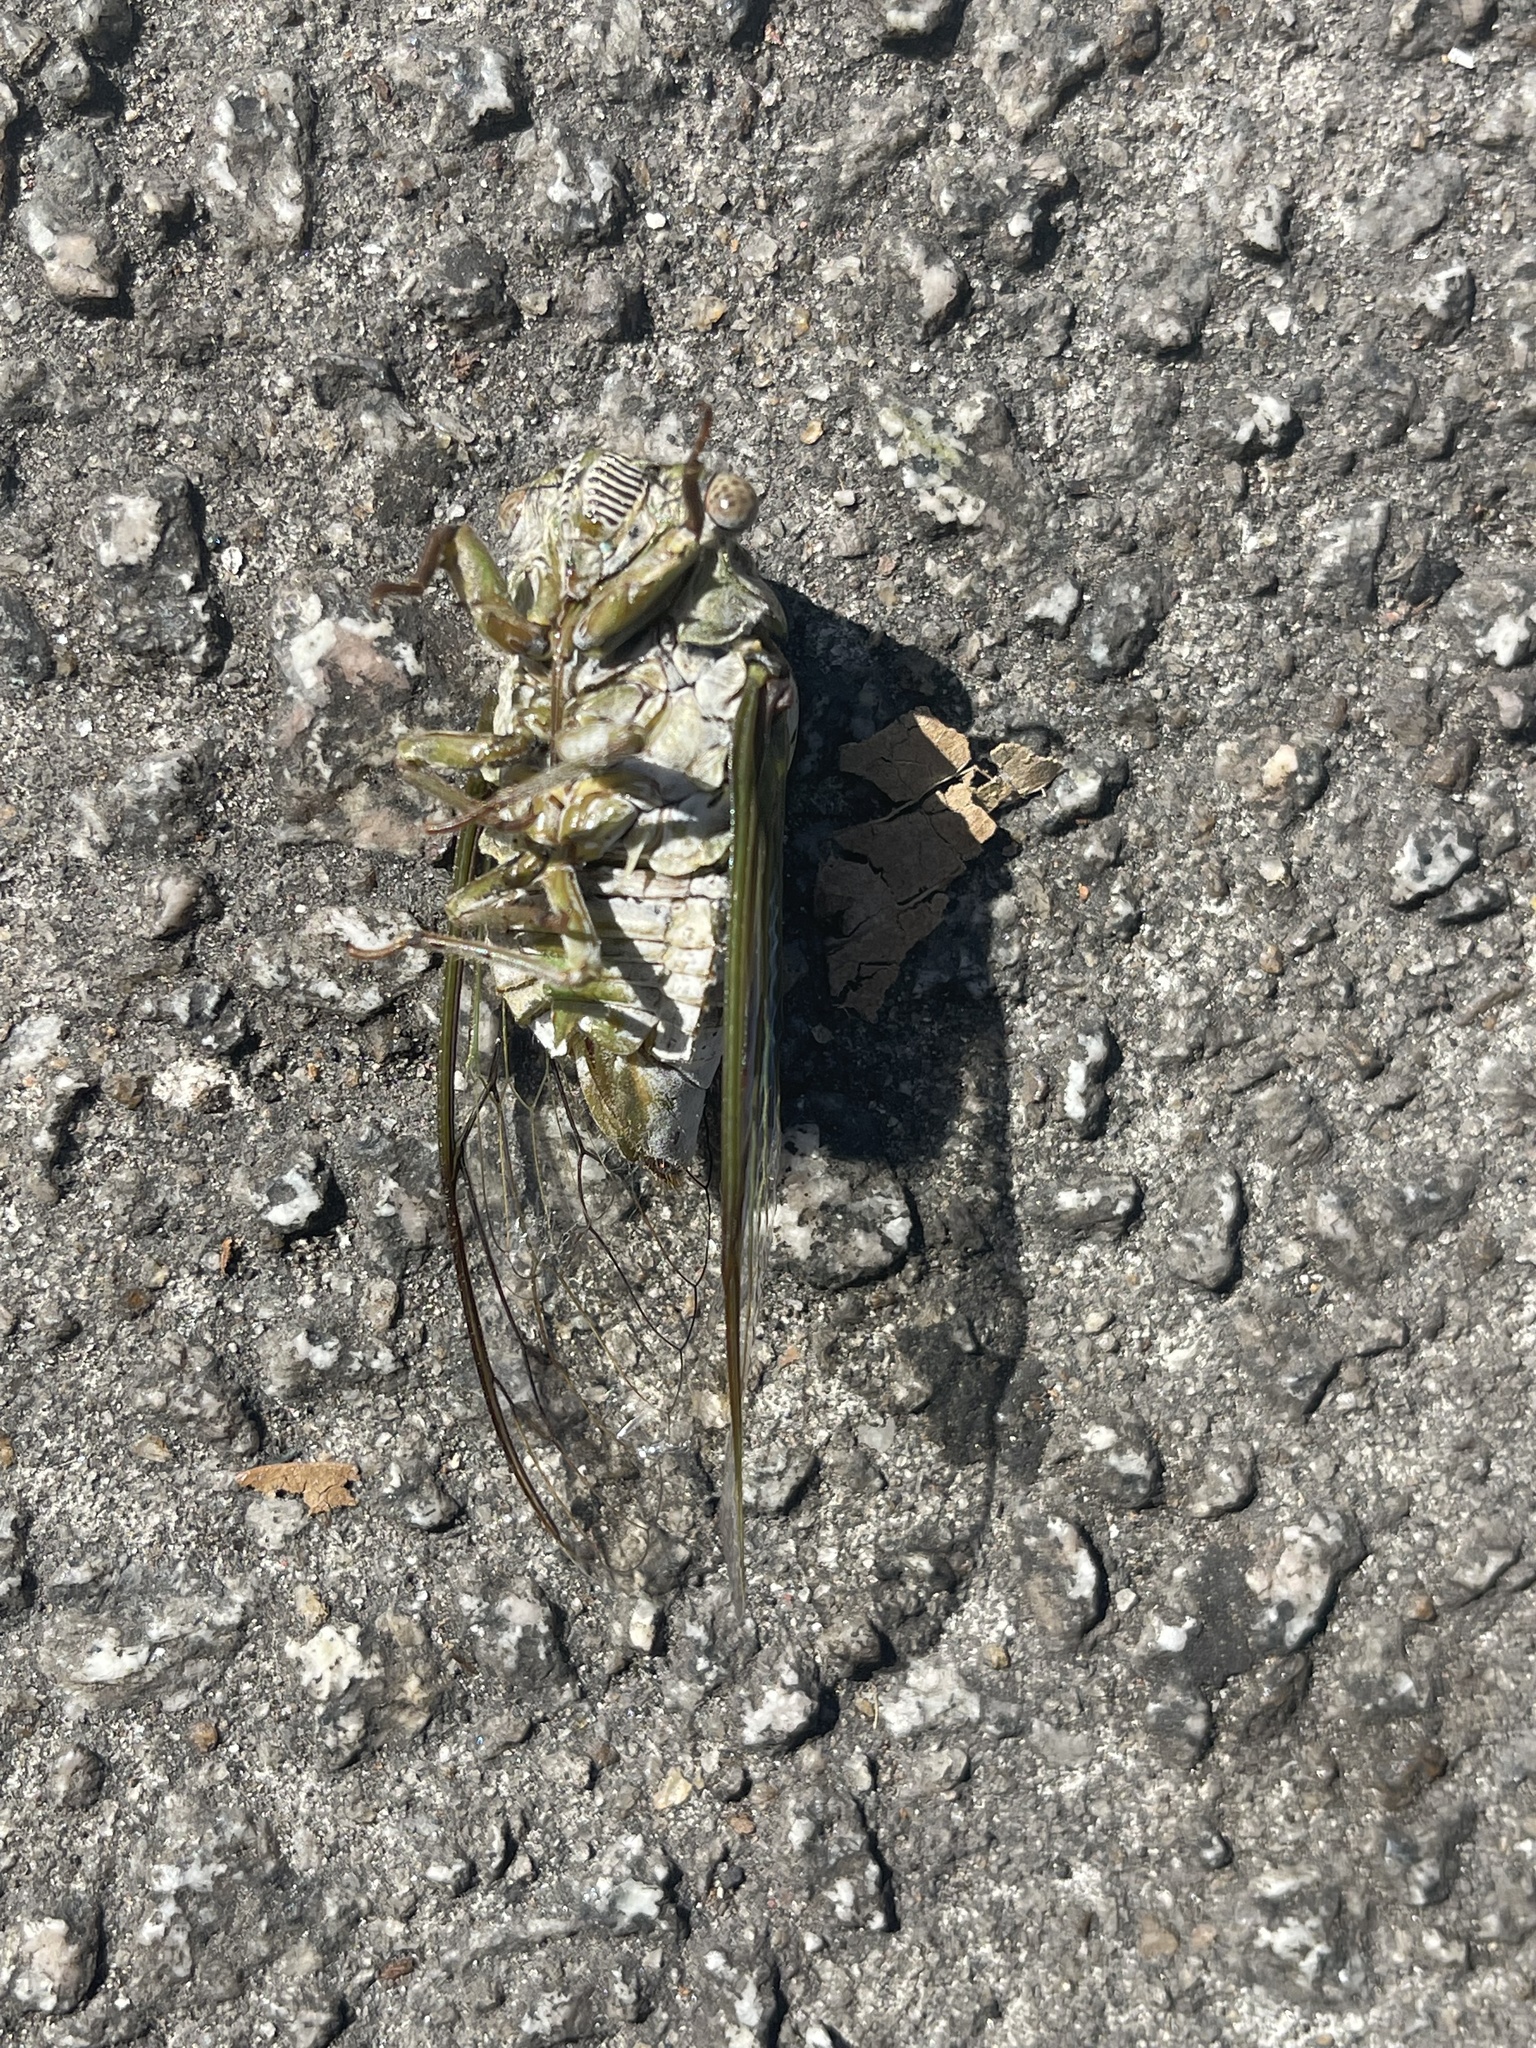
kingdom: Animalia
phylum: Arthropoda
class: Insecta
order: Hemiptera
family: Cicadidae
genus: Diceroprocta
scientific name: Diceroprocta grossa
